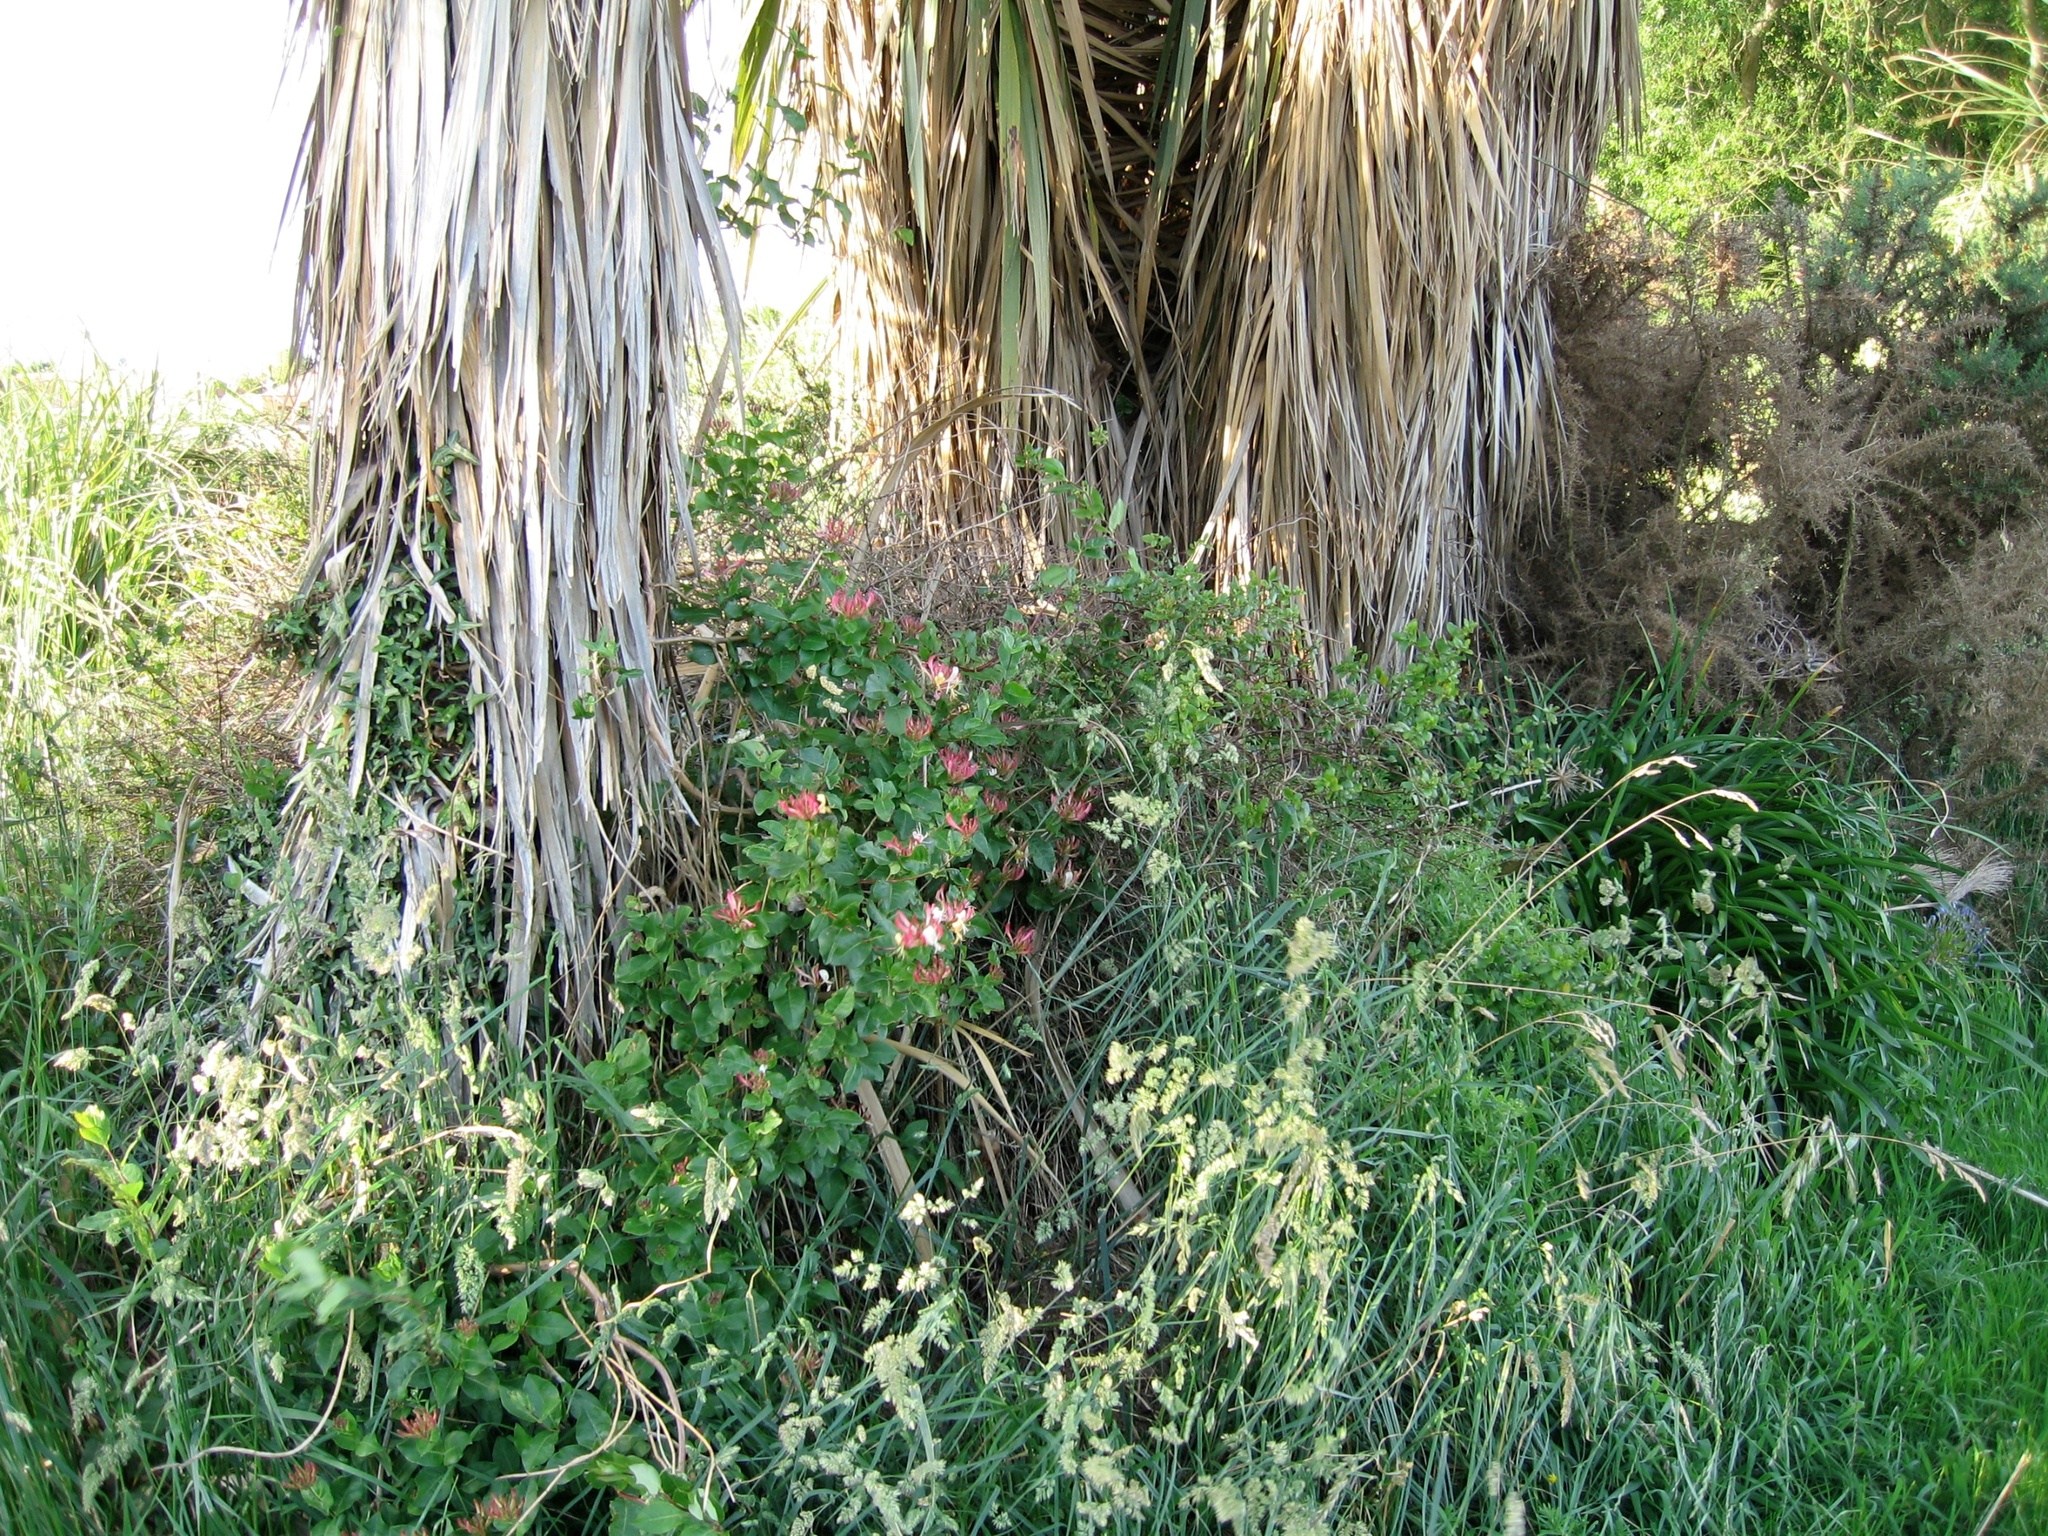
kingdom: Plantae
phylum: Tracheophyta
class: Magnoliopsida
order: Dipsacales
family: Caprifoliaceae
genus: Lonicera
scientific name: Lonicera periclymenum
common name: European honeysuckle
